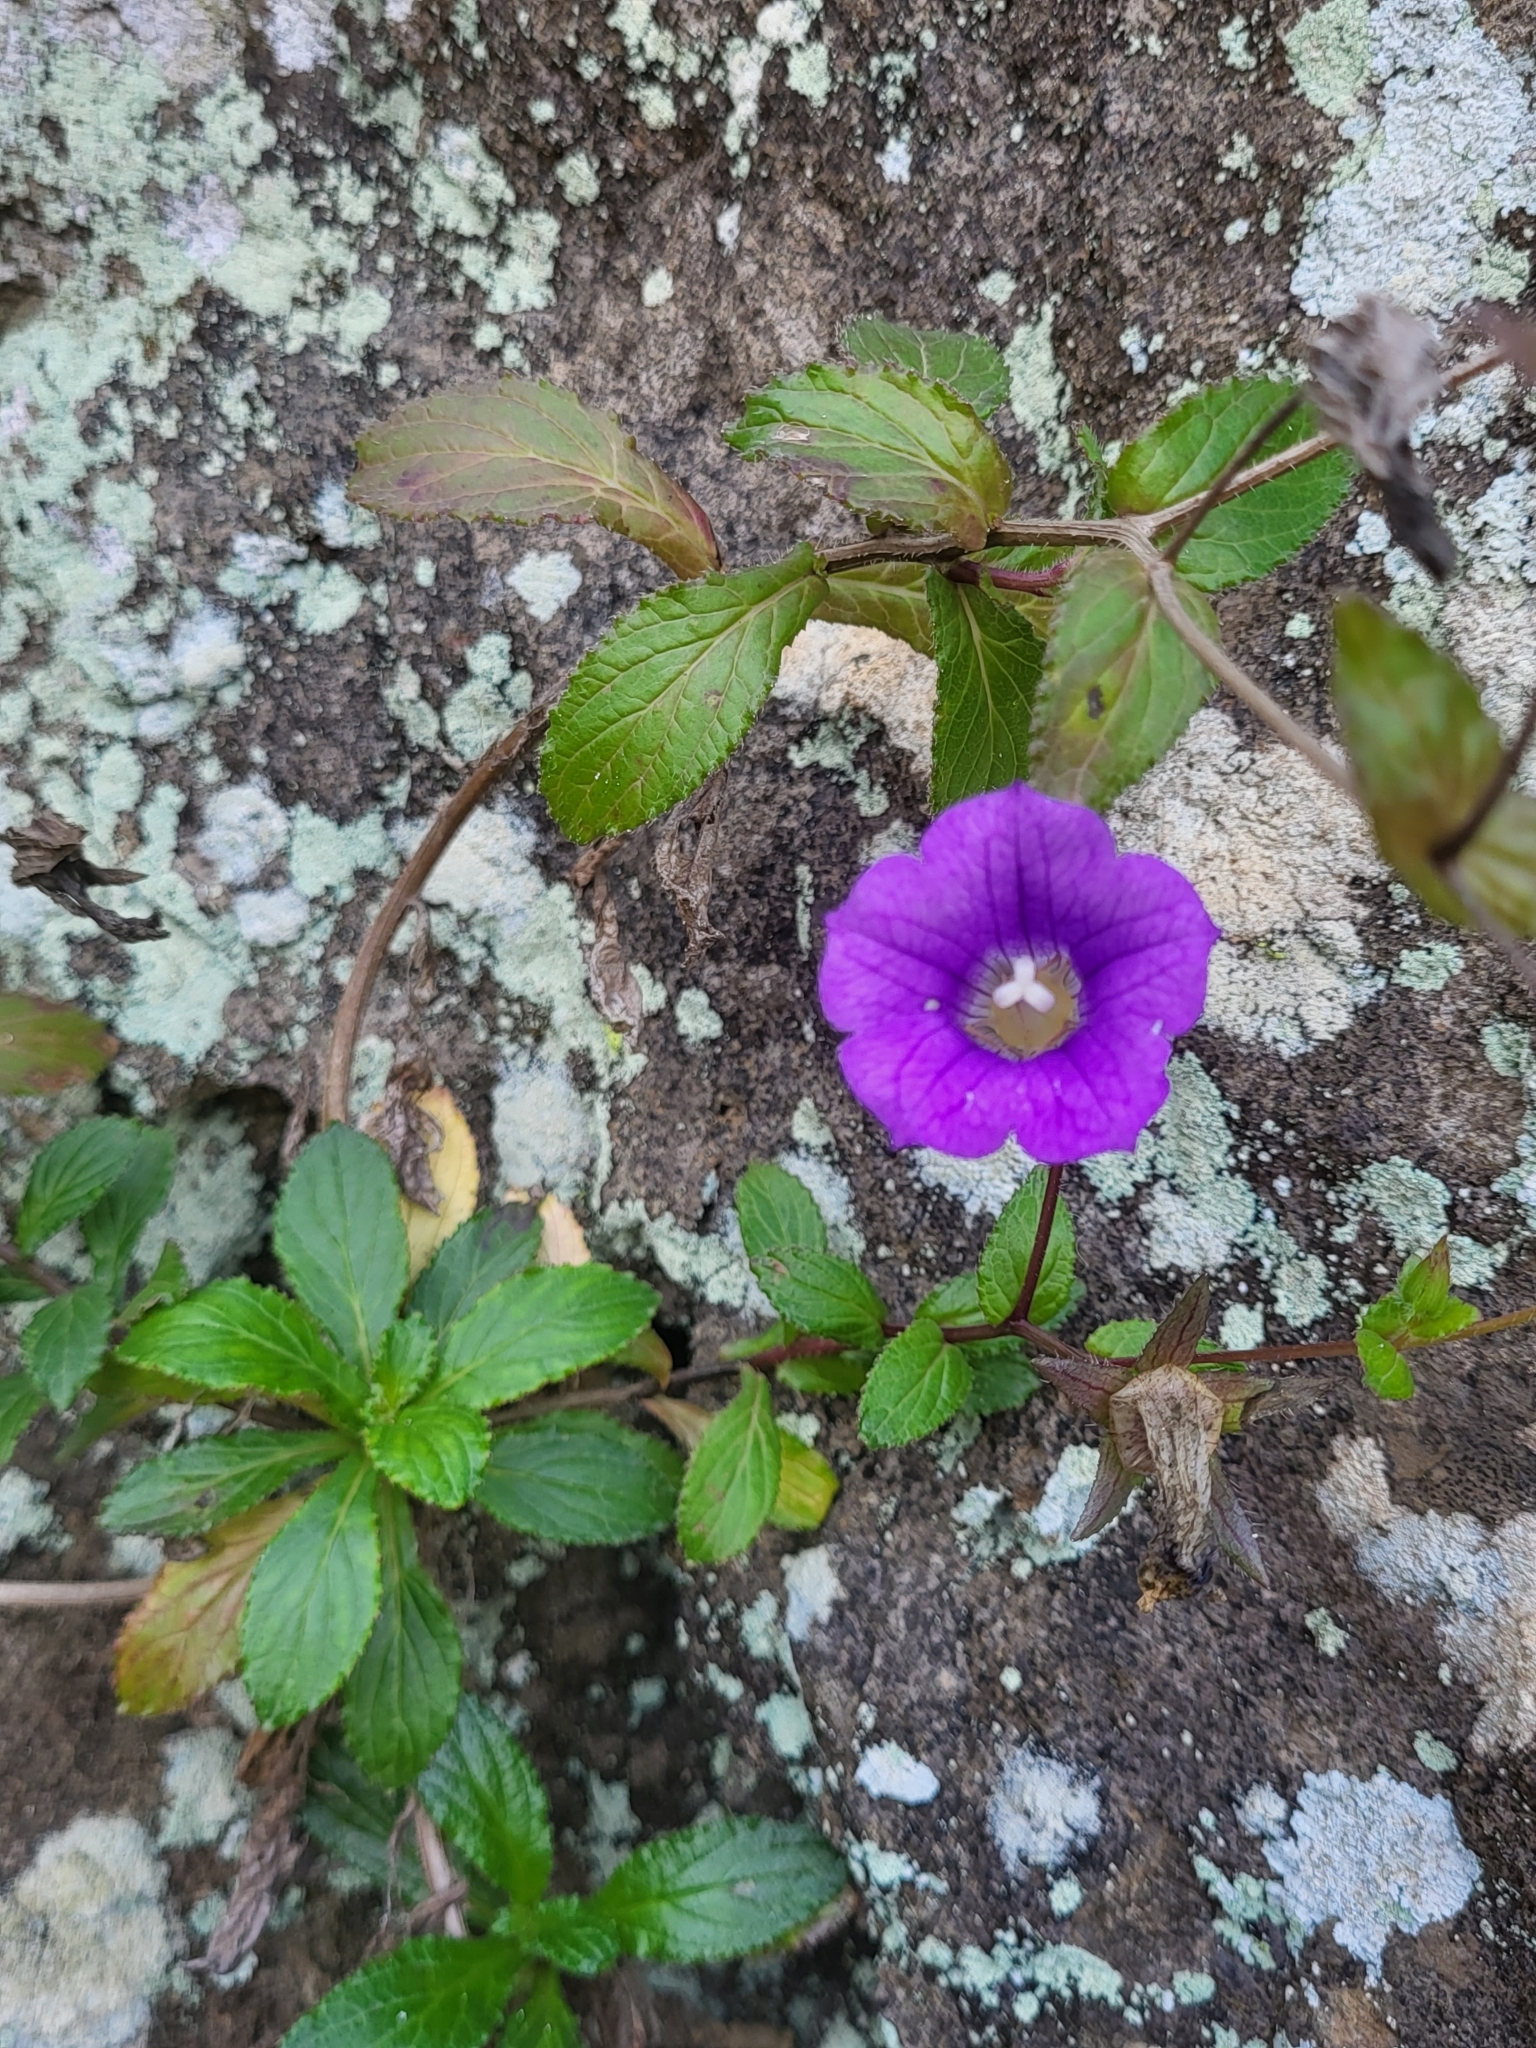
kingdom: Plantae
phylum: Tracheophyta
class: Magnoliopsida
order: Asterales
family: Campanulaceae
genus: Campanula
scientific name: Campanula feijoana
